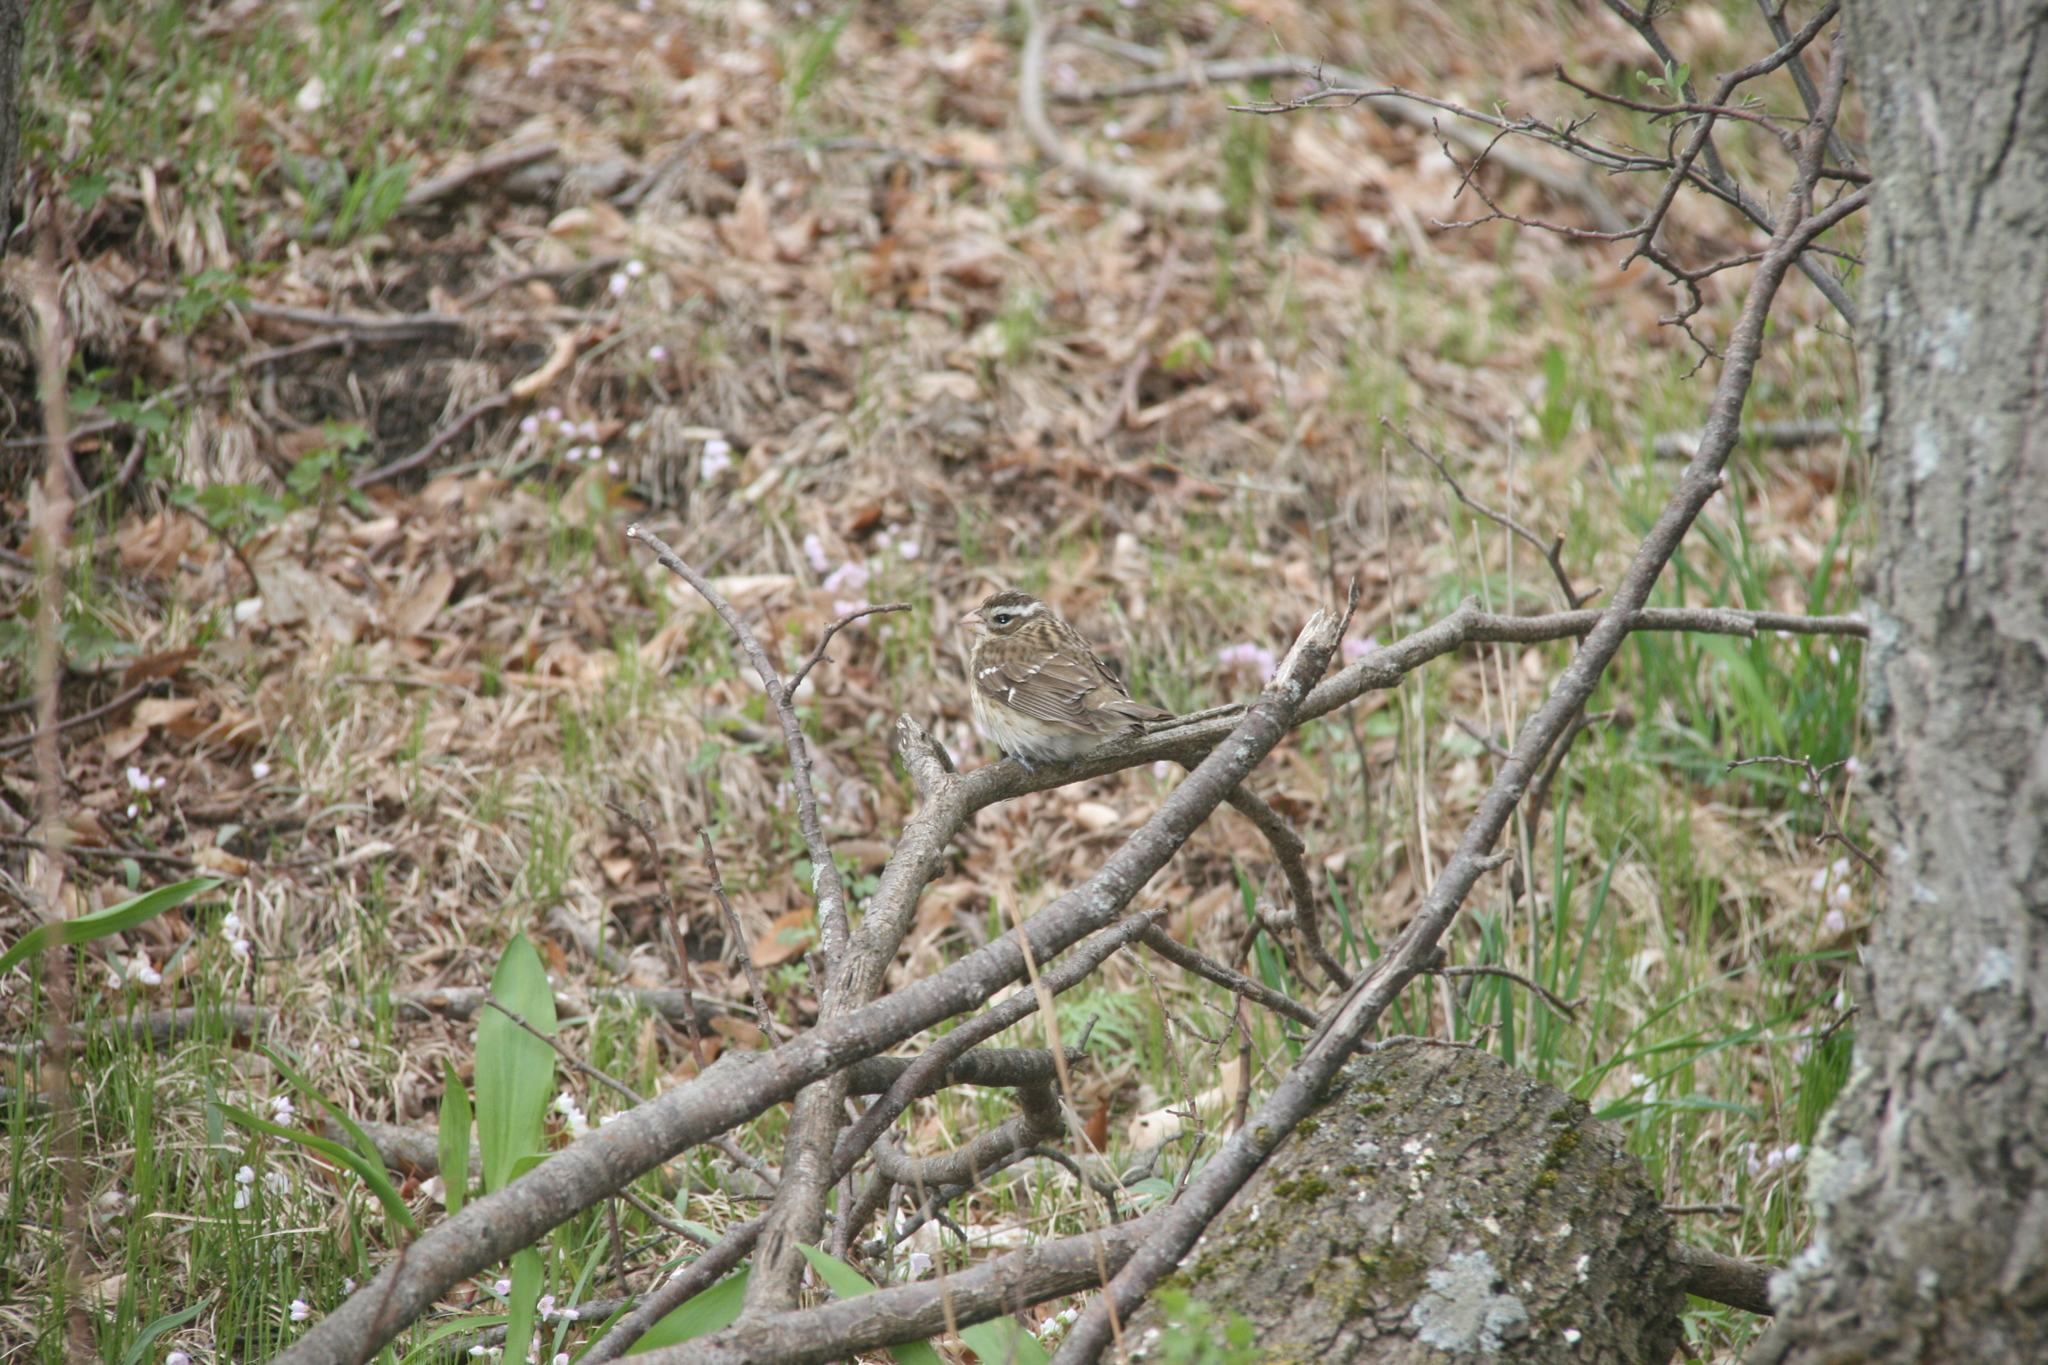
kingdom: Animalia
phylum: Chordata
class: Aves
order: Passeriformes
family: Cardinalidae
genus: Pheucticus
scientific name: Pheucticus ludovicianus
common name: Rose-breasted grosbeak
